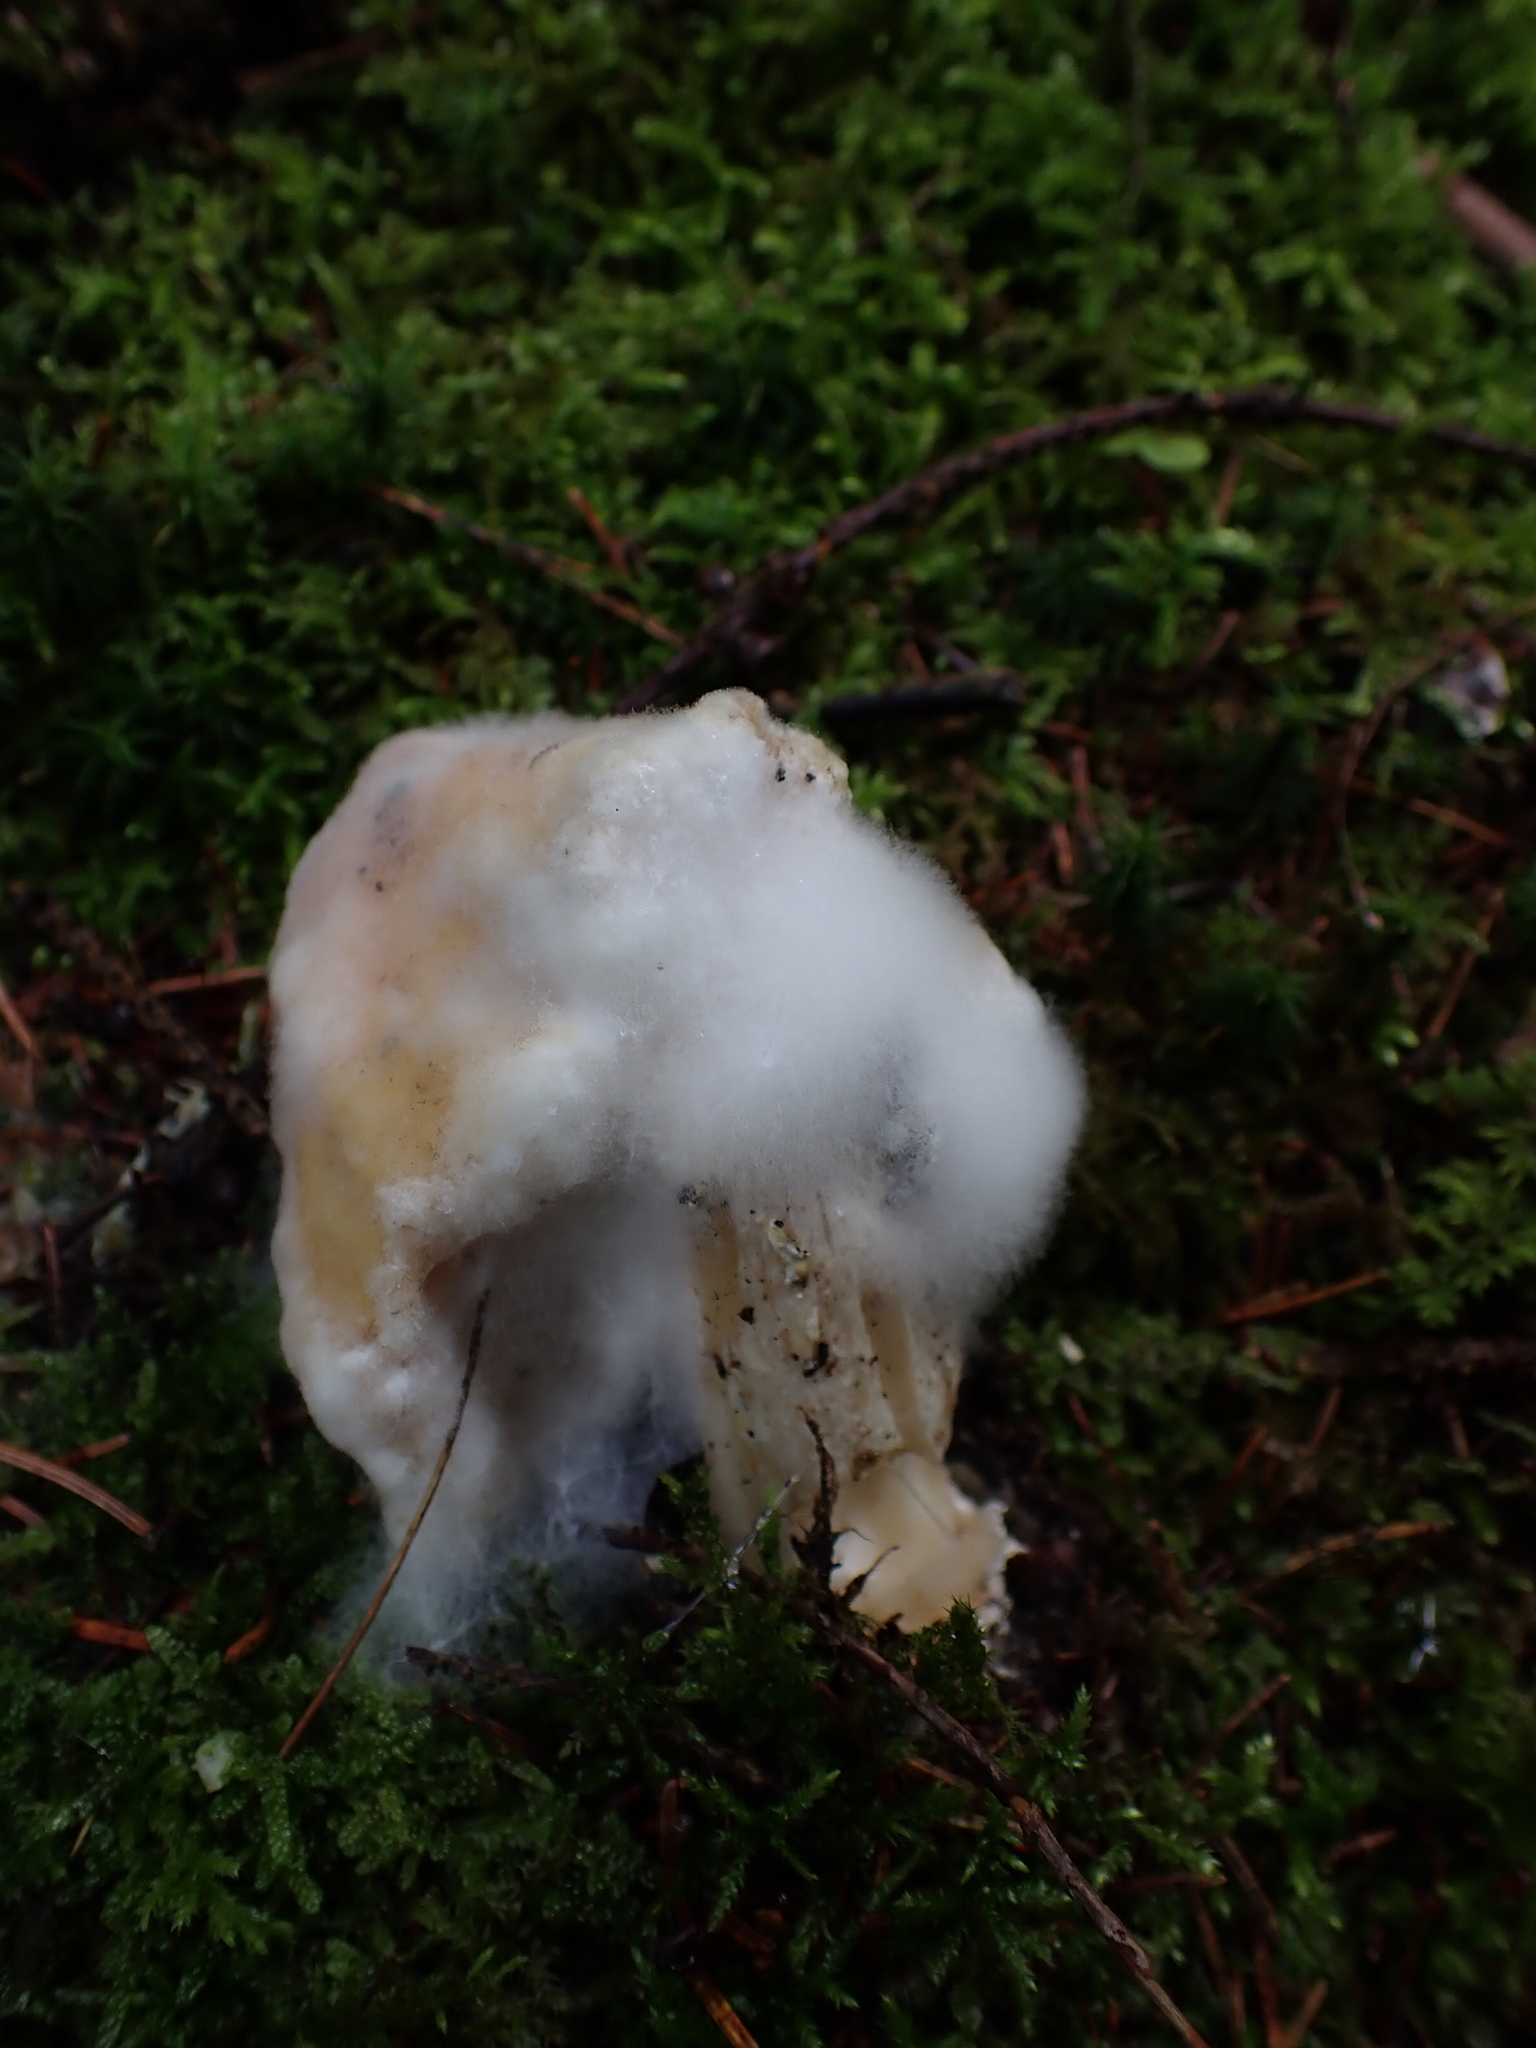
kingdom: Fungi
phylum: Mucoromycota
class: Mucoromycetes
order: Mucorales
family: Rhizopodaceae
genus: Syzygites
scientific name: Syzygites megalocarpus
